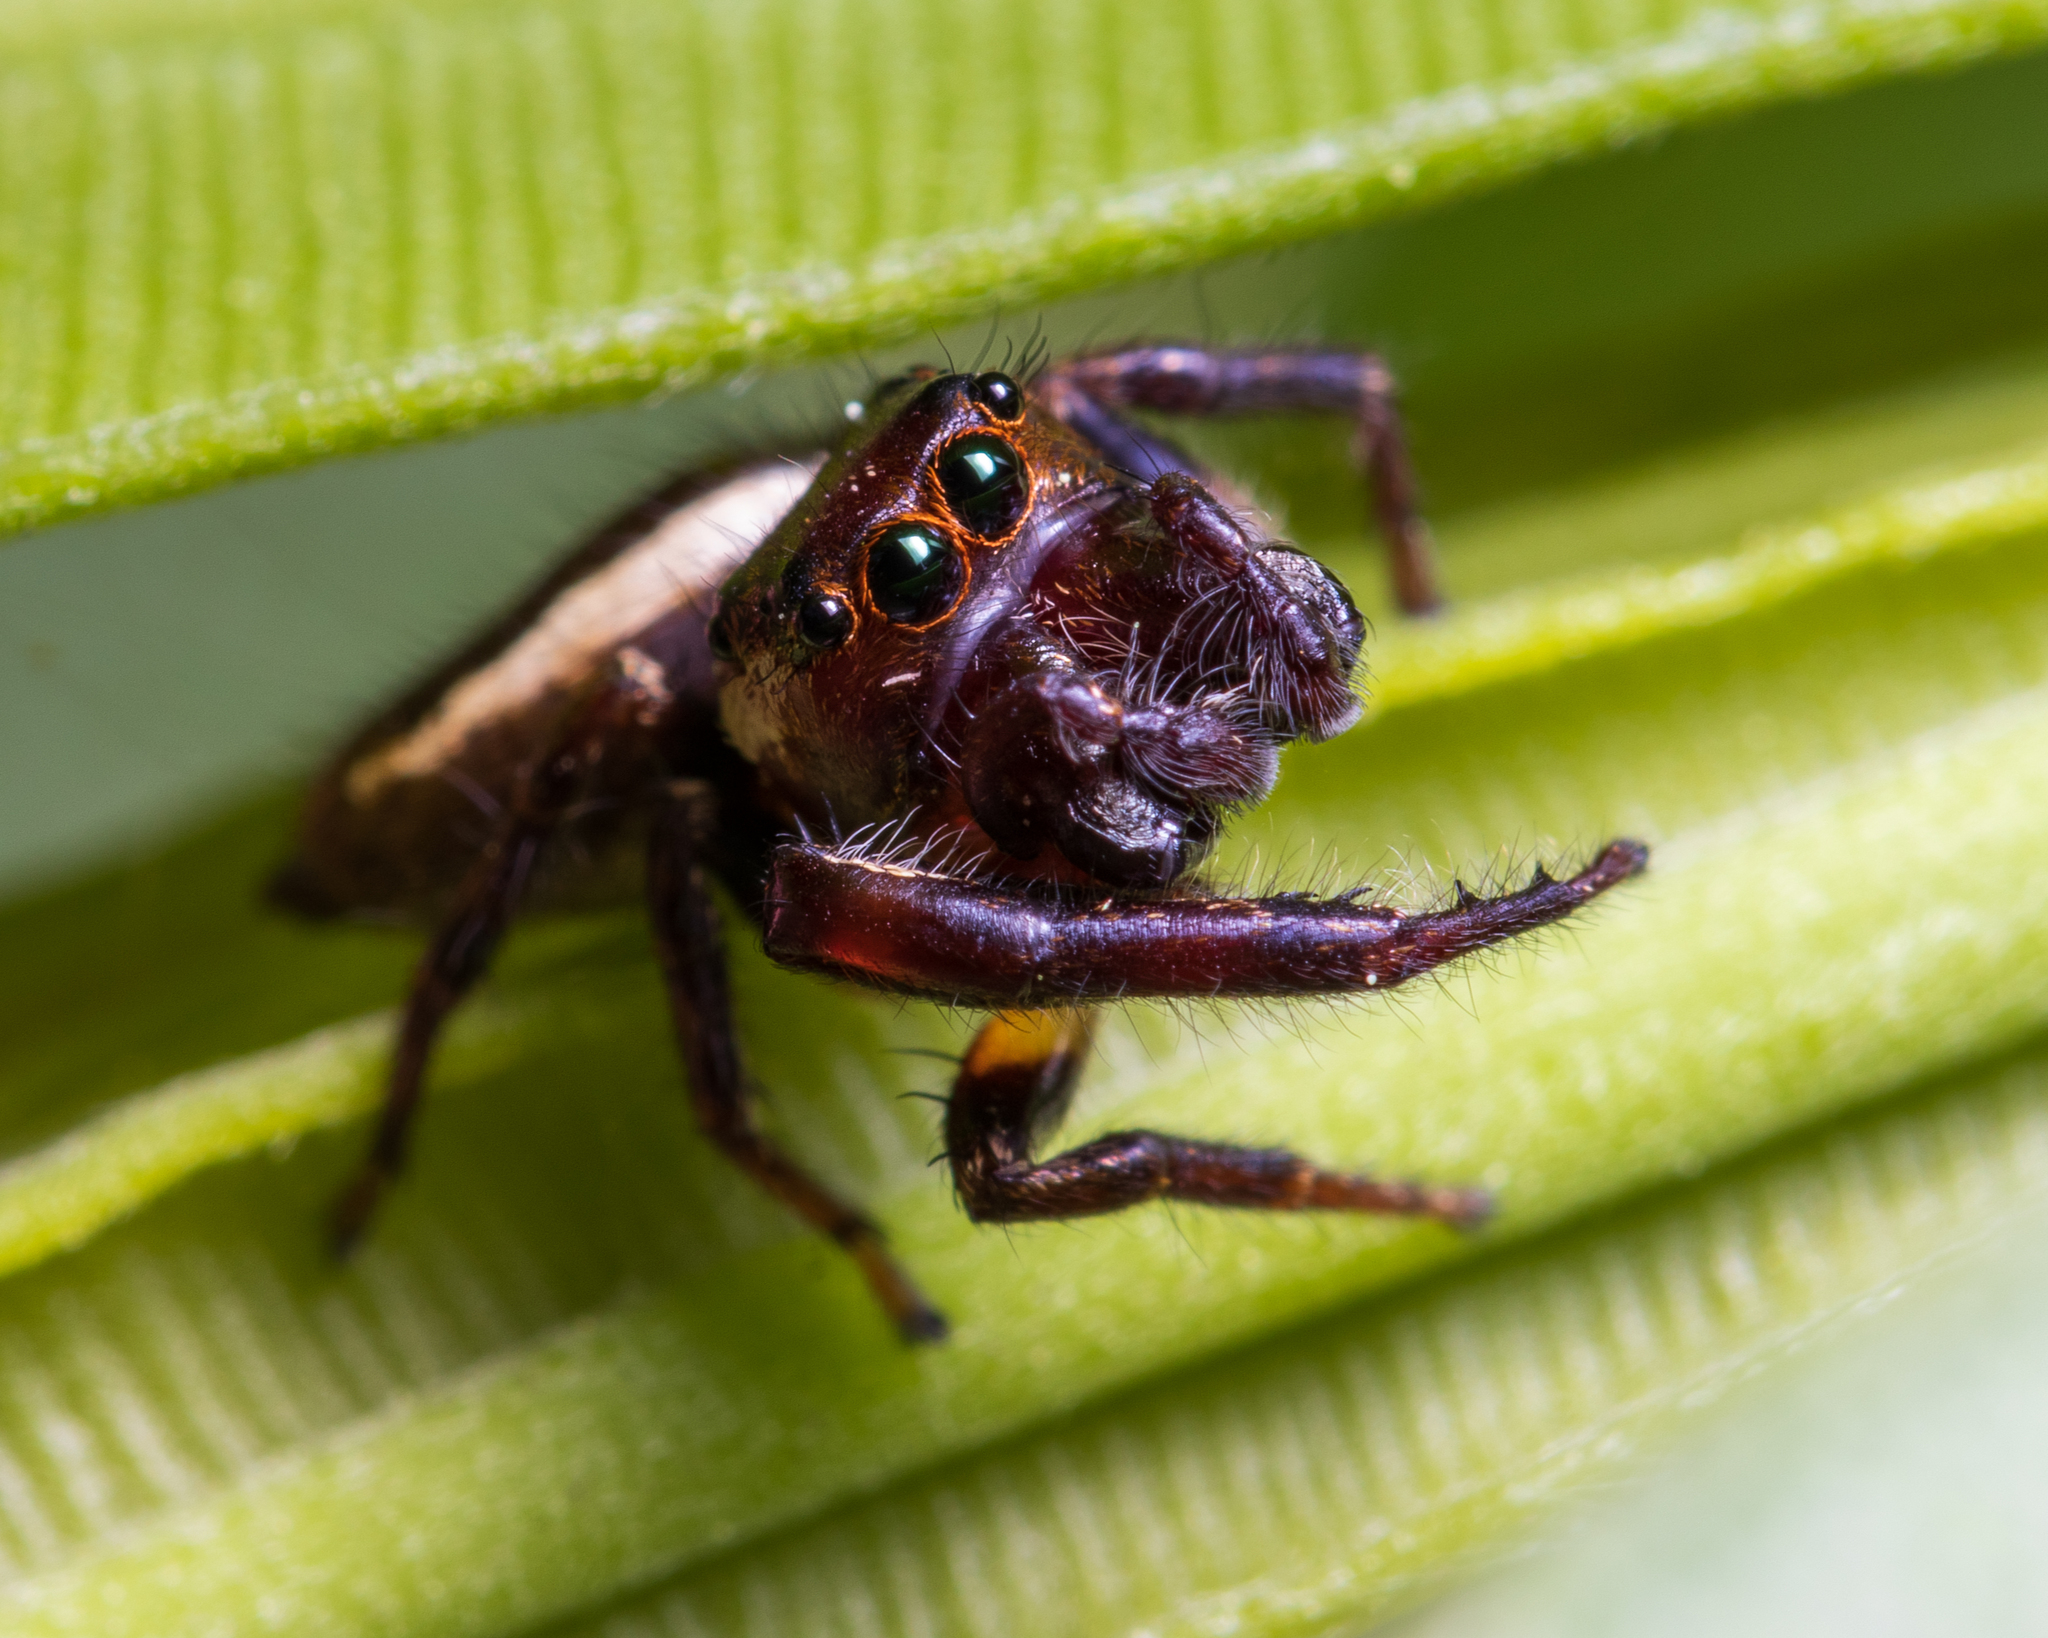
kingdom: Animalia
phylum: Arthropoda
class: Arachnida
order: Araneae
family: Salticidae
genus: Eris
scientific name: Eris militaris
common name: Bronze jumper
